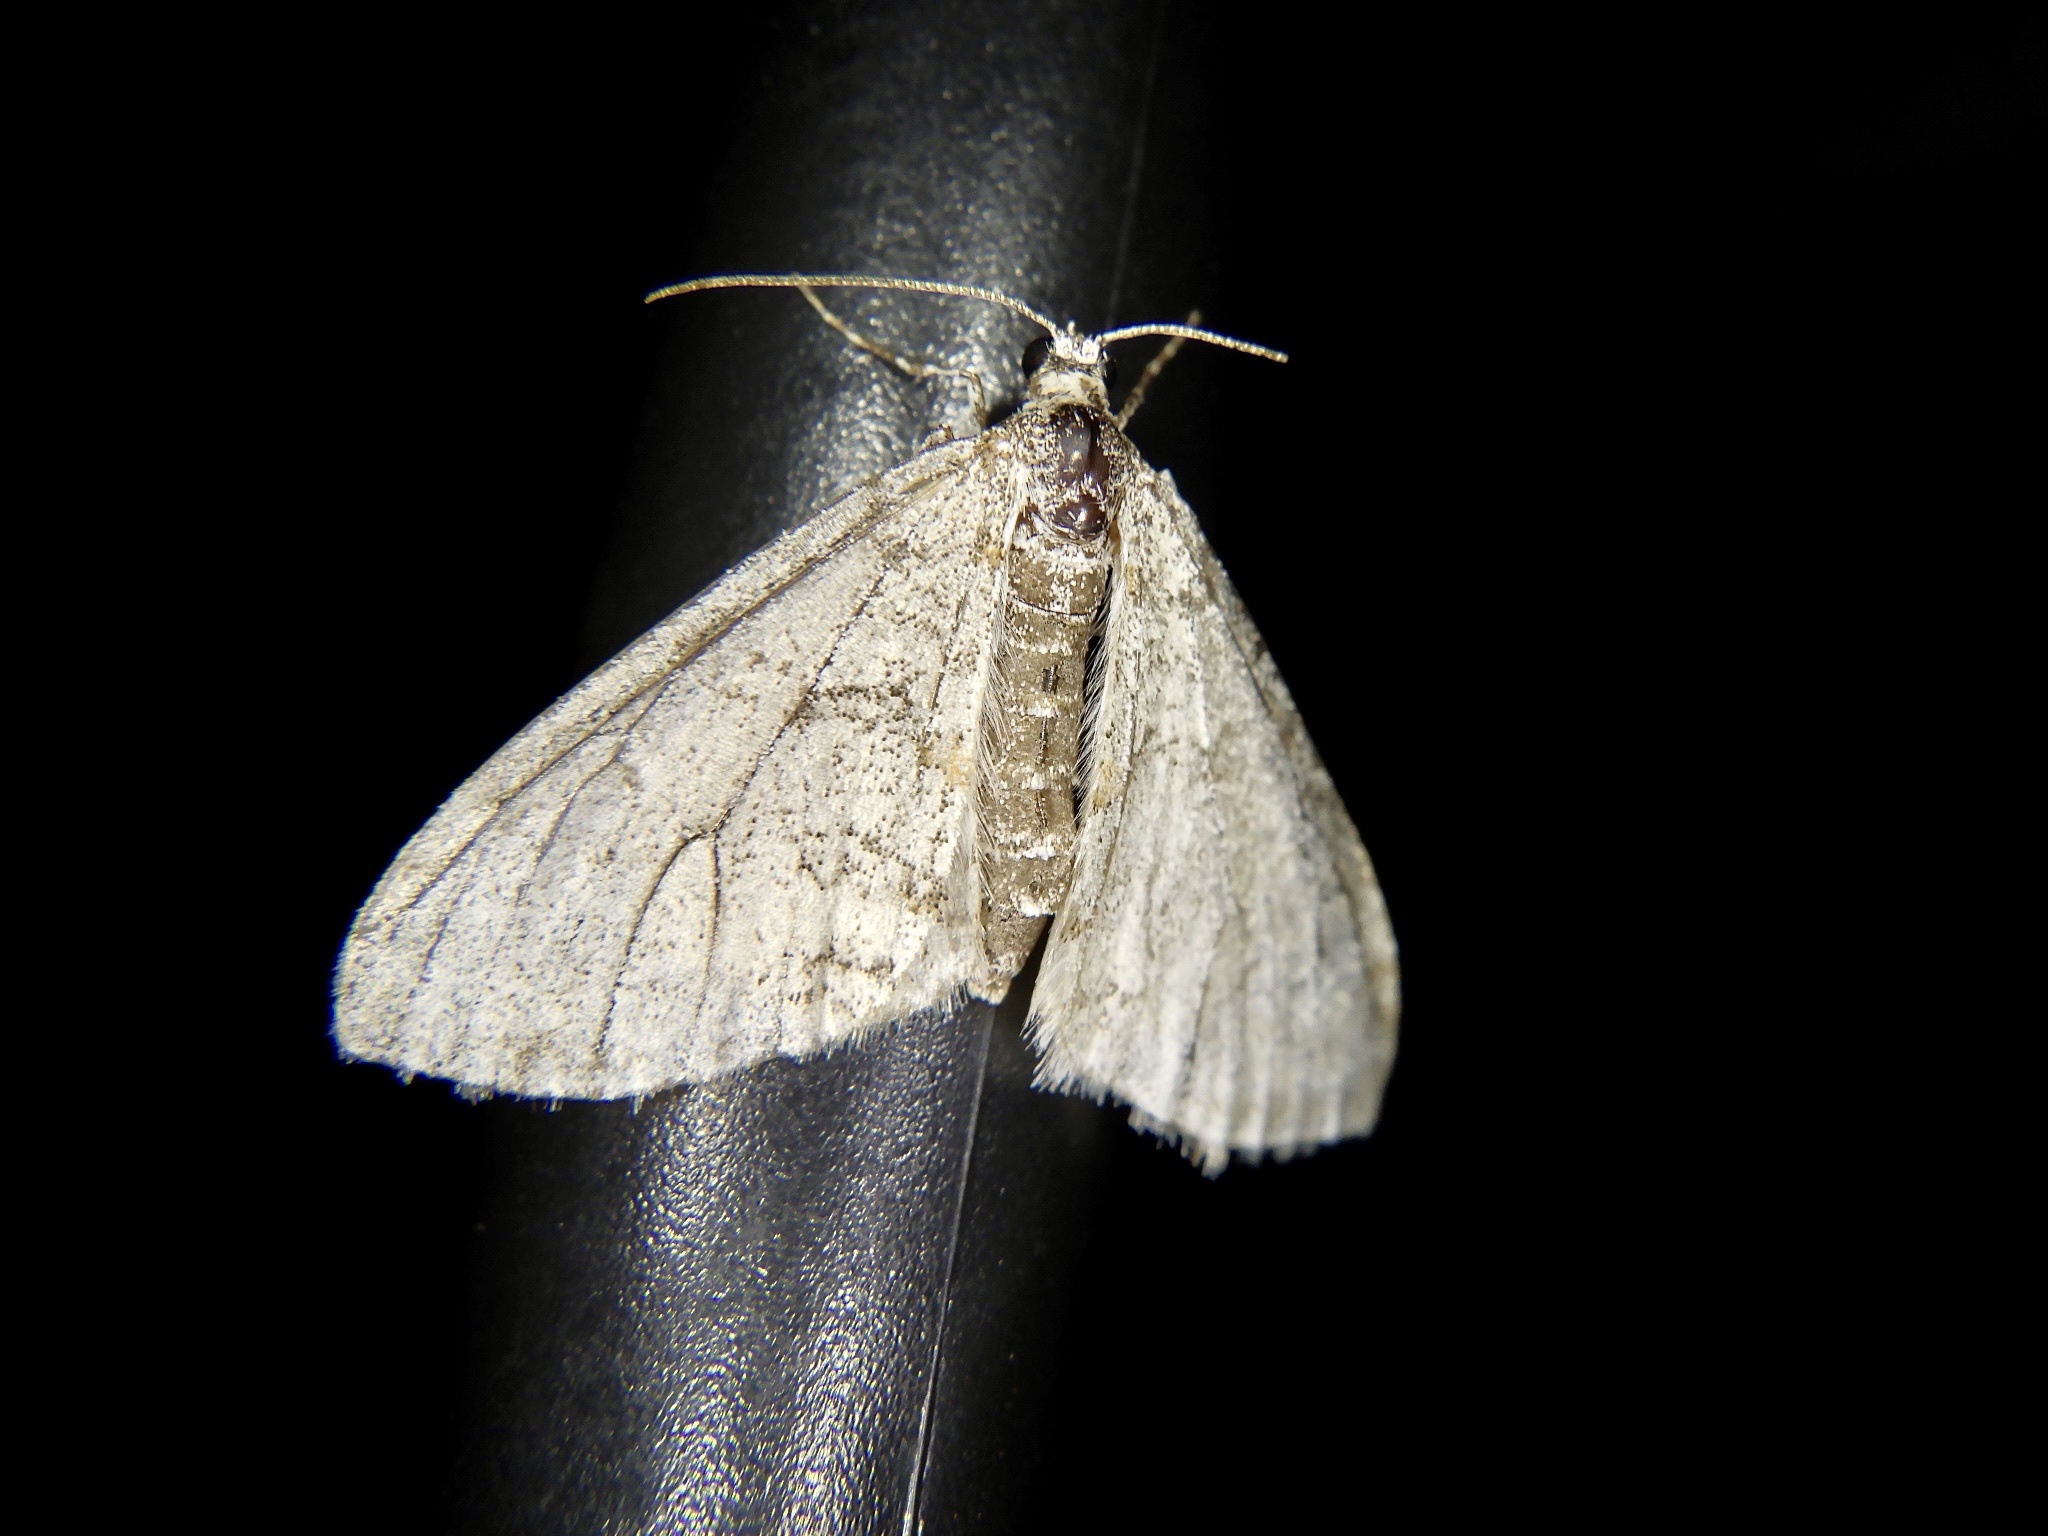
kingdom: Animalia
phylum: Arthropoda
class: Insecta
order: Lepidoptera
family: Geometridae
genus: Trichopteryx
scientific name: Trichopteryx hemana
